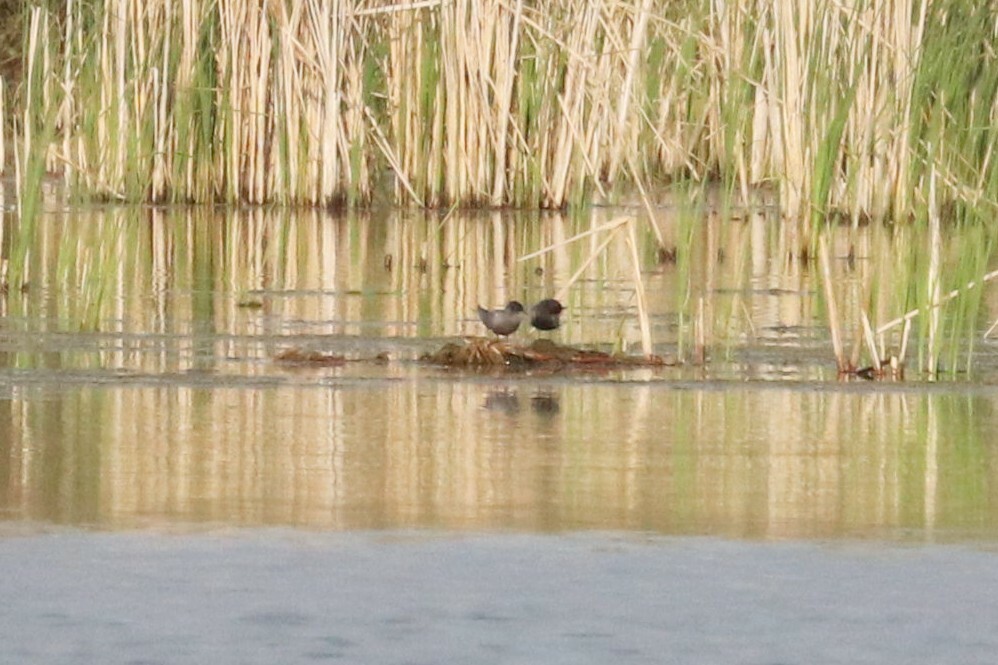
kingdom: Animalia
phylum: Chordata
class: Aves
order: Charadriiformes
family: Laridae
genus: Chlidonias
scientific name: Chlidonias niger
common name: Black tern
